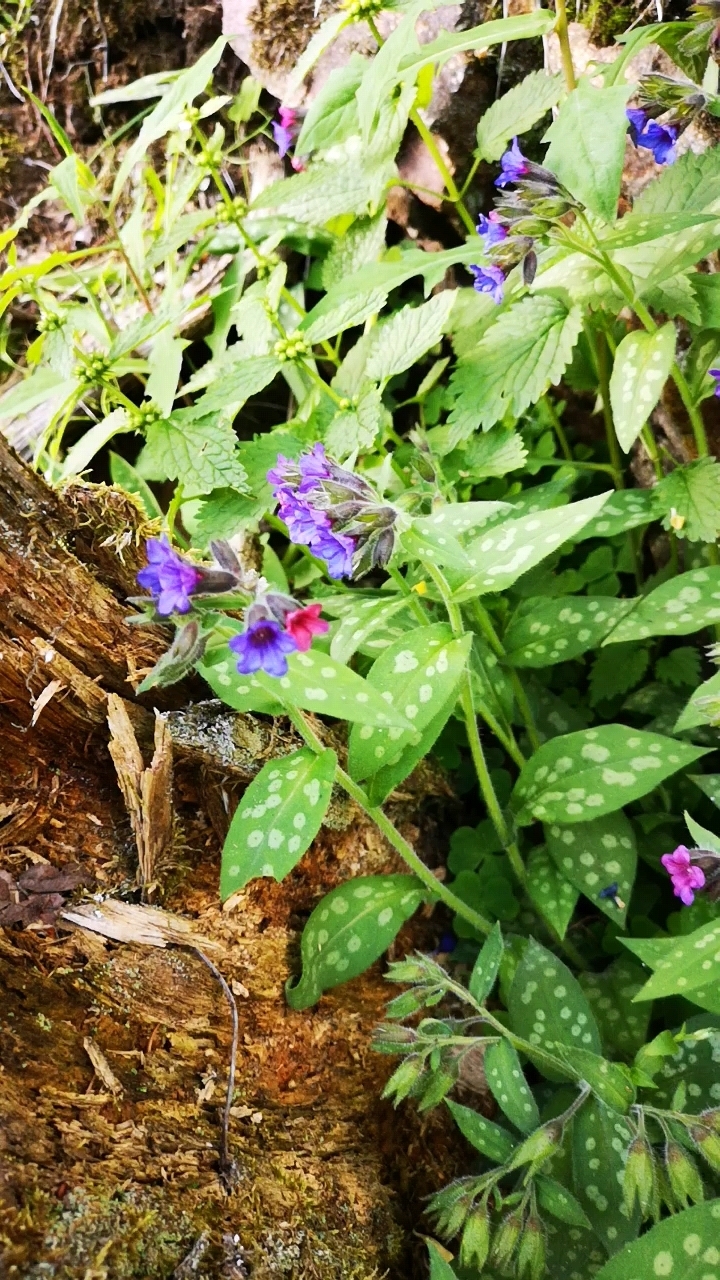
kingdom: Plantae
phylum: Tracheophyta
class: Magnoliopsida
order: Boraginales
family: Boraginaceae
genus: Pulmonaria
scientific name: Pulmonaria officinalis
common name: Lungwort
